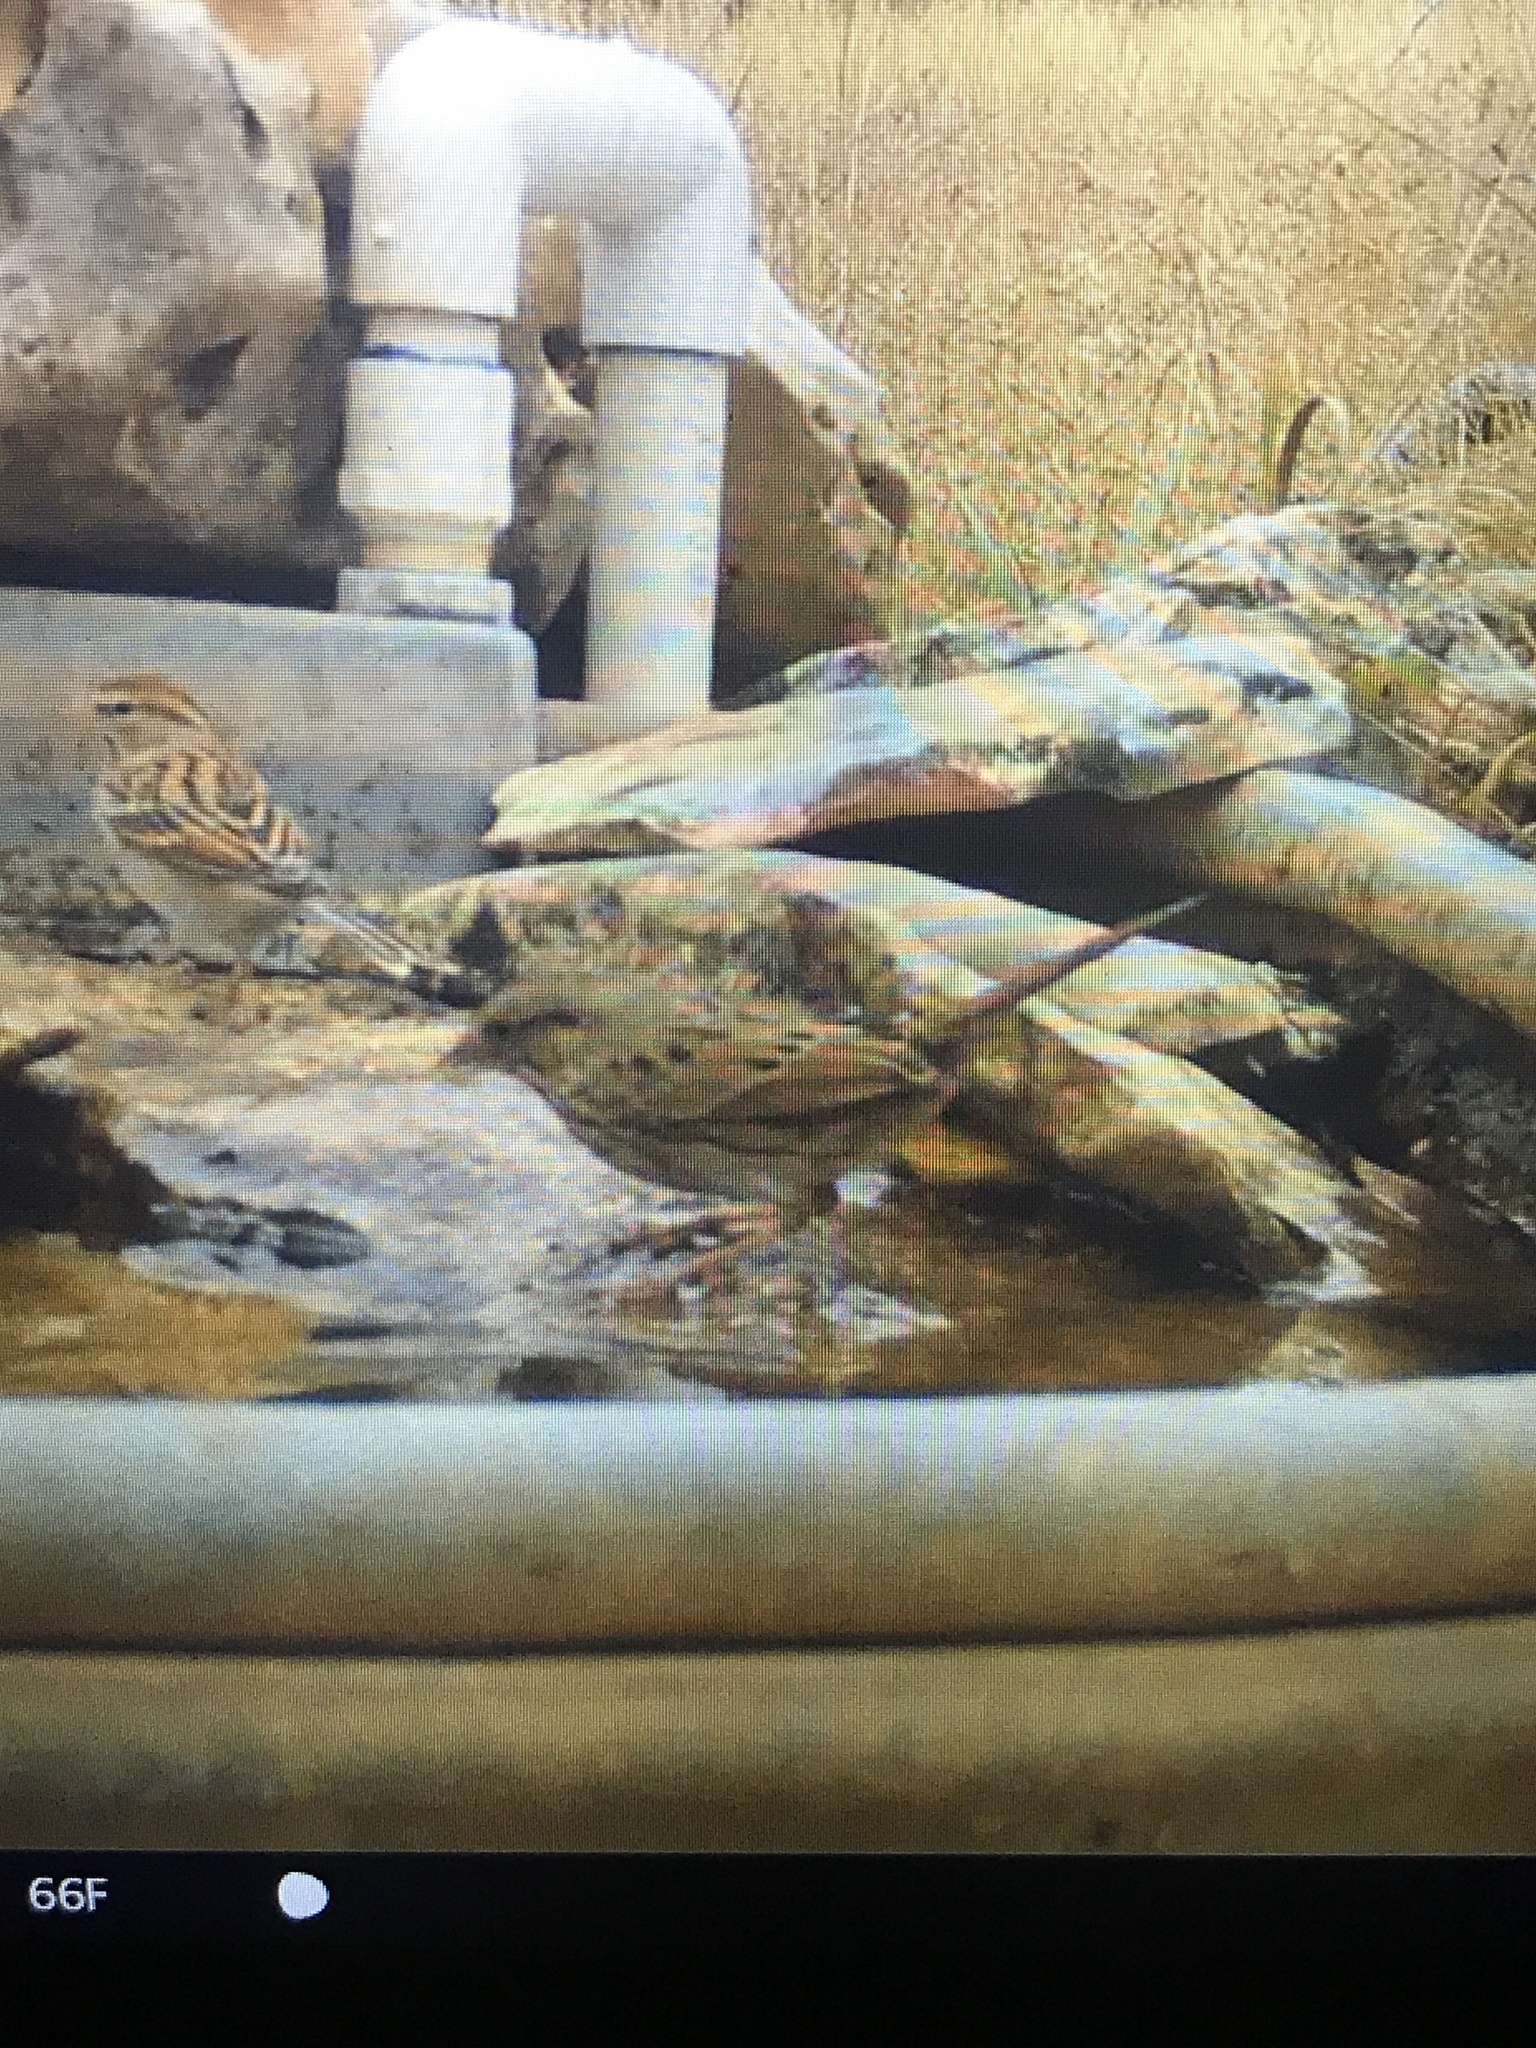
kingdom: Animalia
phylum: Chordata
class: Aves
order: Passeriformes
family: Passerellidae
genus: Melospiza
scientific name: Melospiza lincolnii
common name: Lincoln's sparrow
